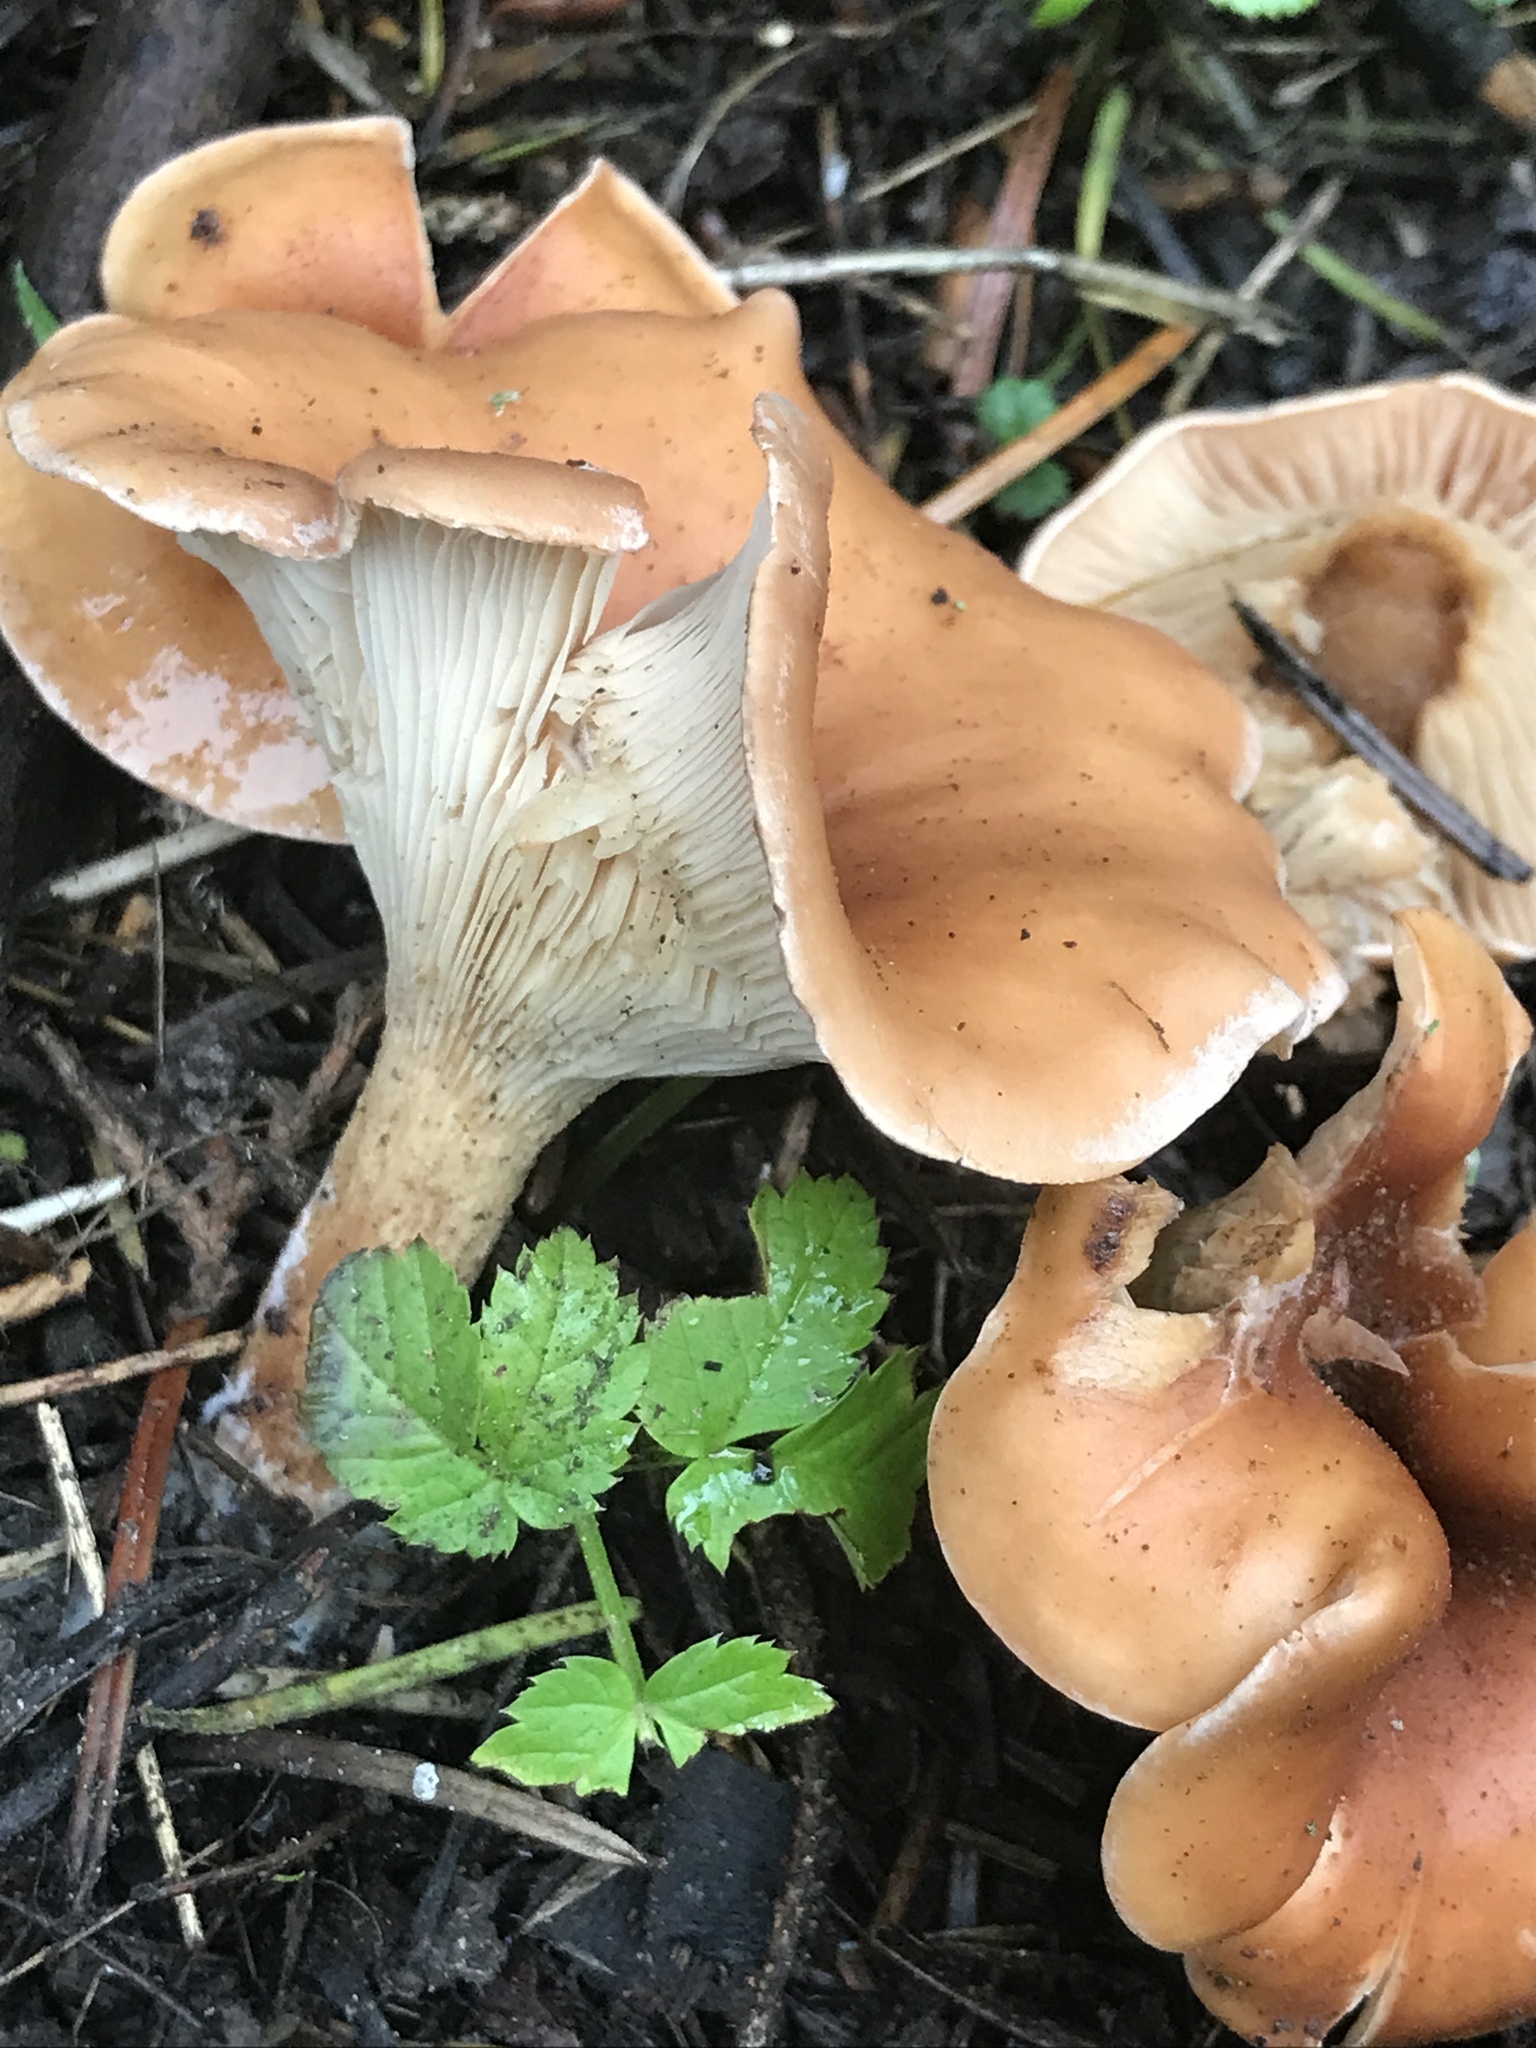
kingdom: Fungi
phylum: Basidiomycota
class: Agaricomycetes
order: Agaricales
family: Tricholomataceae
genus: Paralepista
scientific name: Paralepista flaccida
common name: Tawny funnel cap
